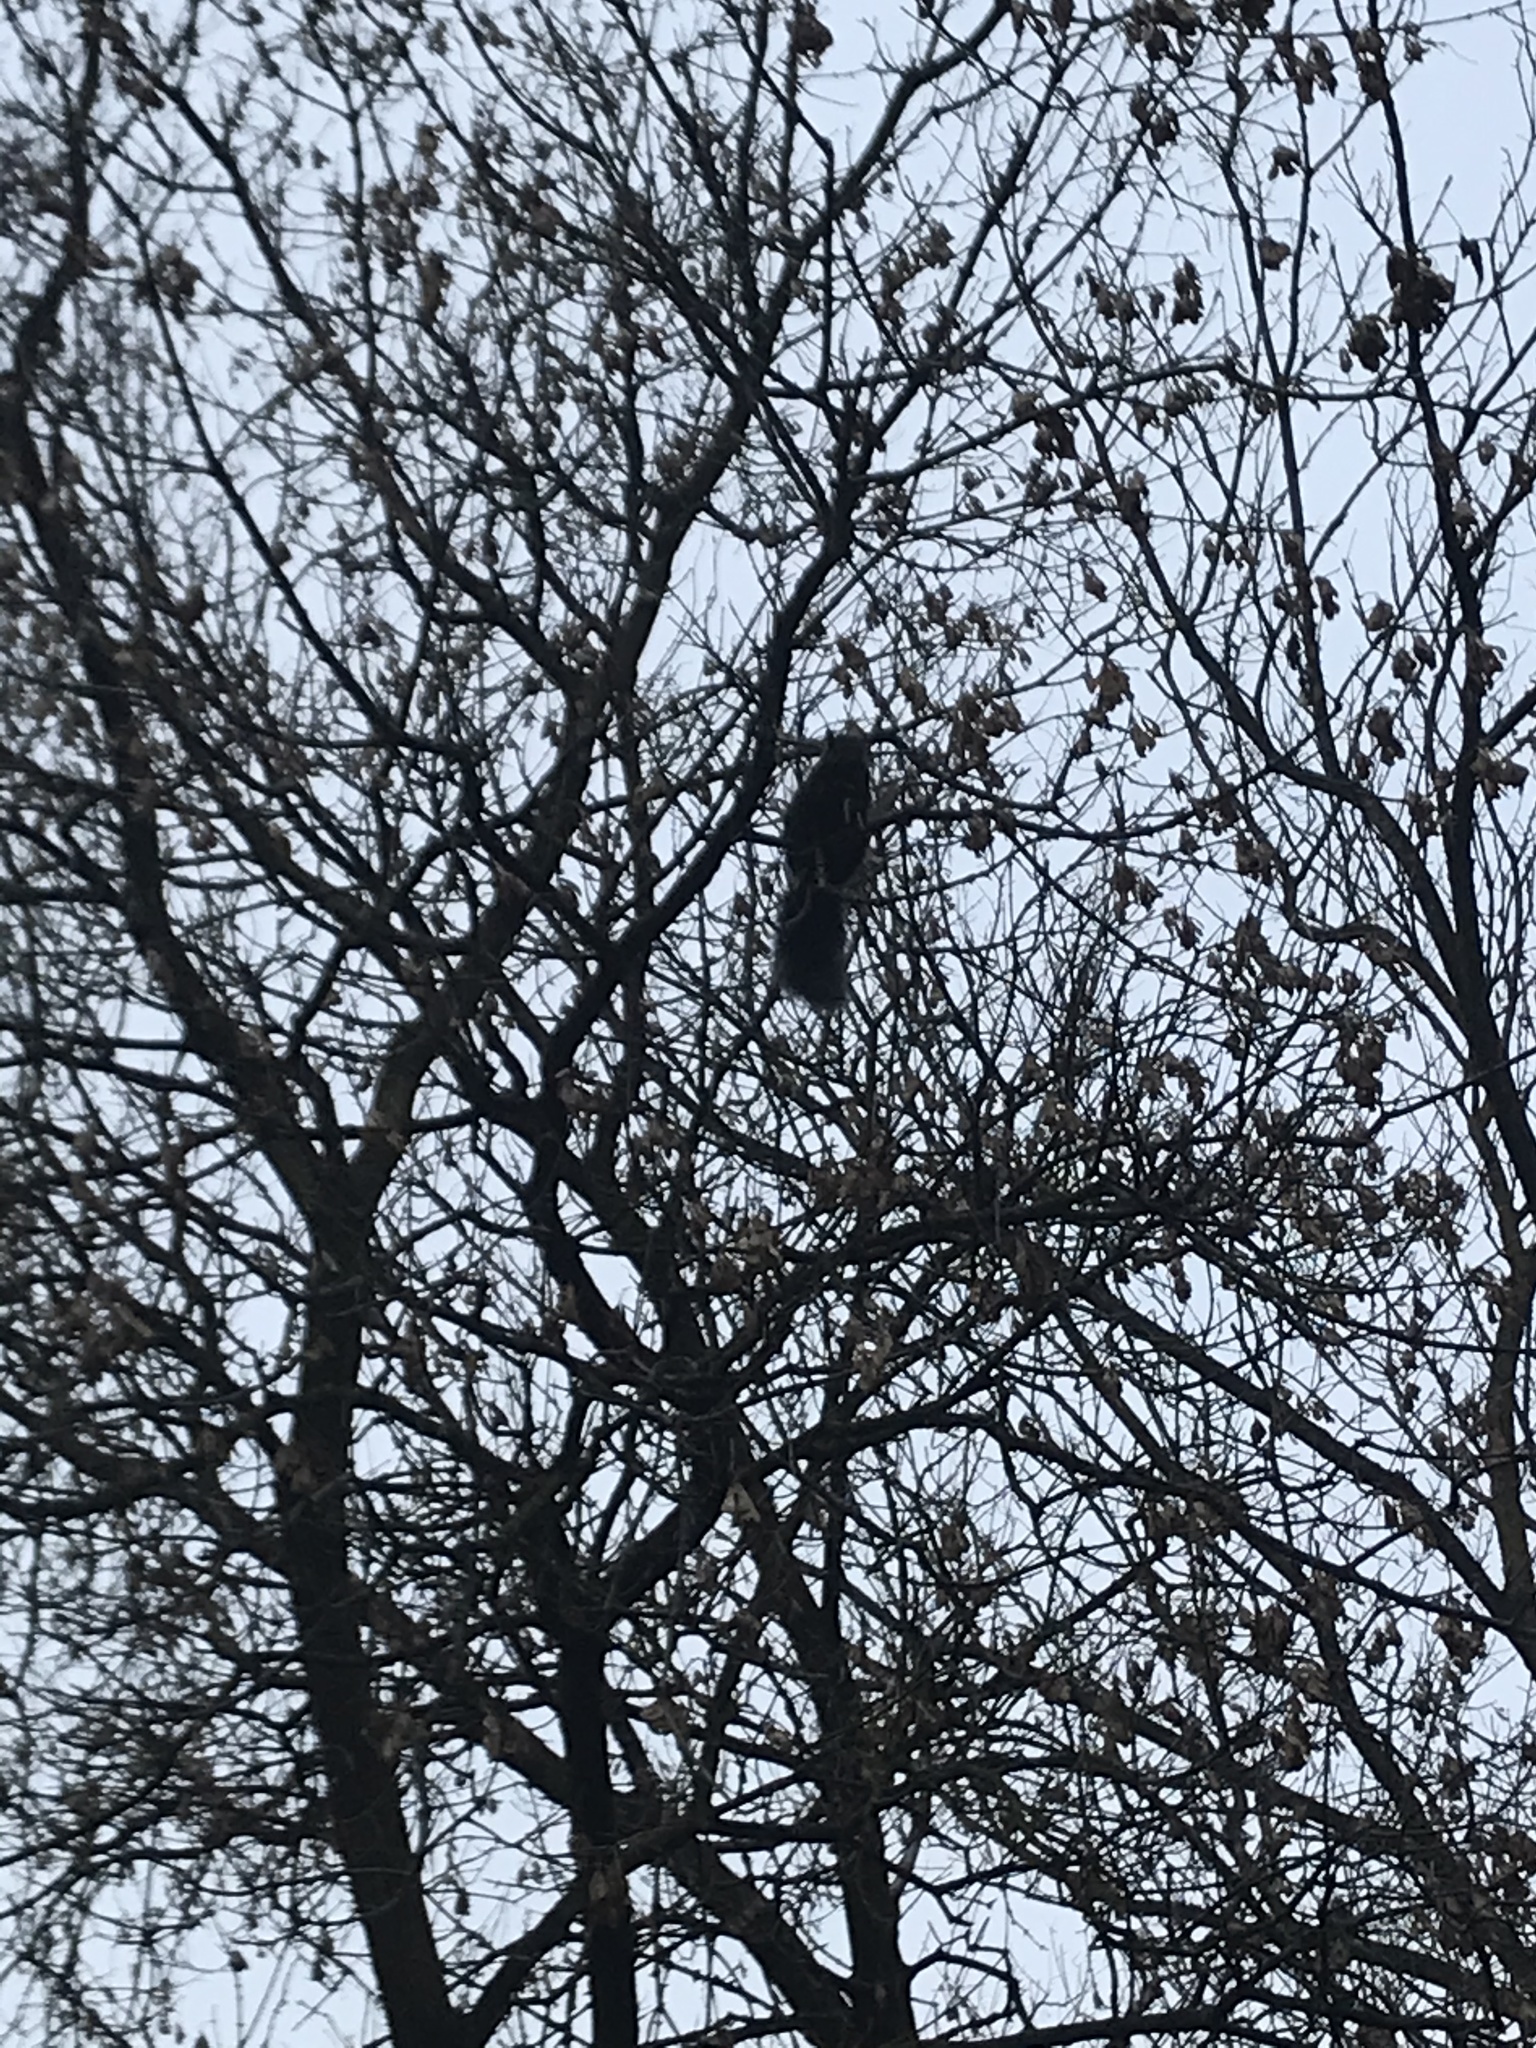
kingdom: Animalia
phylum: Chordata
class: Mammalia
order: Rodentia
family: Sciuridae
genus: Sciurus
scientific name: Sciurus carolinensis
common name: Eastern gray squirrel
